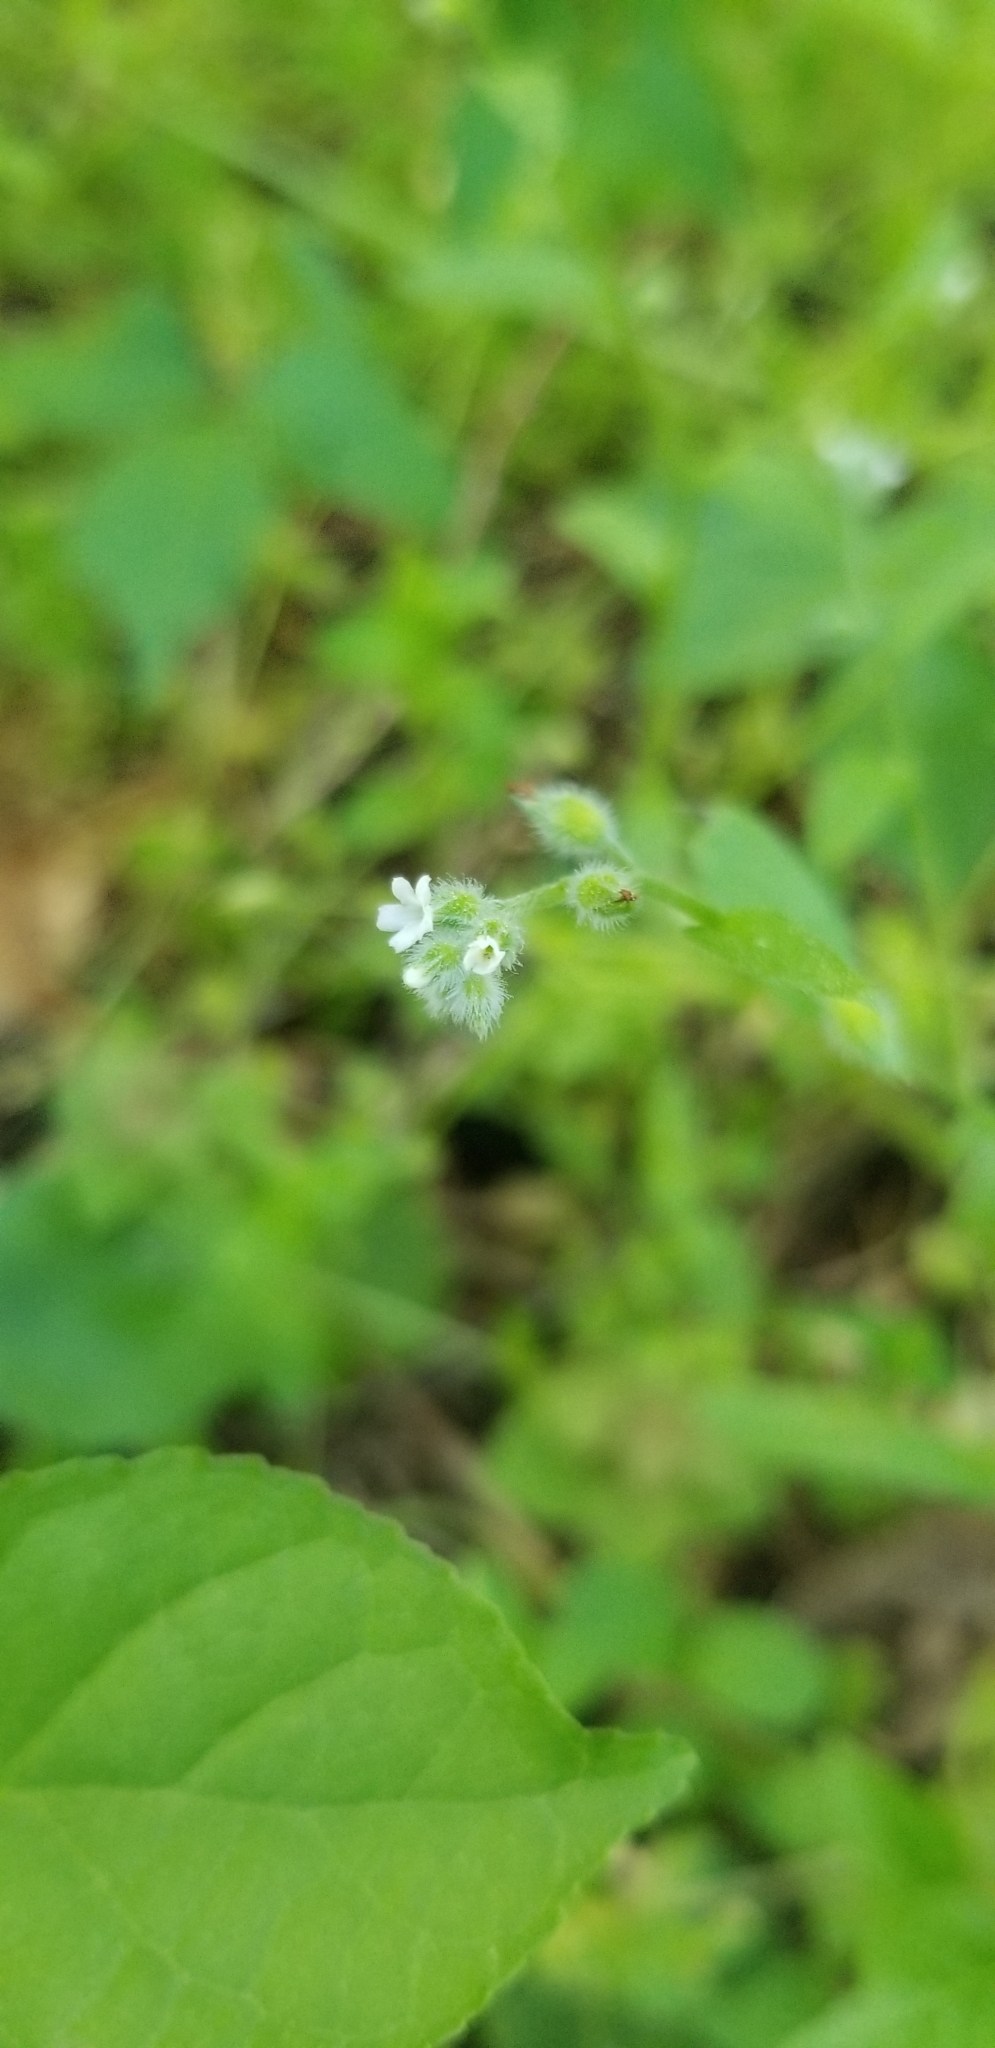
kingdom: Plantae
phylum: Tracheophyta
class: Magnoliopsida
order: Boraginales
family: Boraginaceae
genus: Myosotis
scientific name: Myosotis macrosperma
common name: Large-seed forget-me-not
